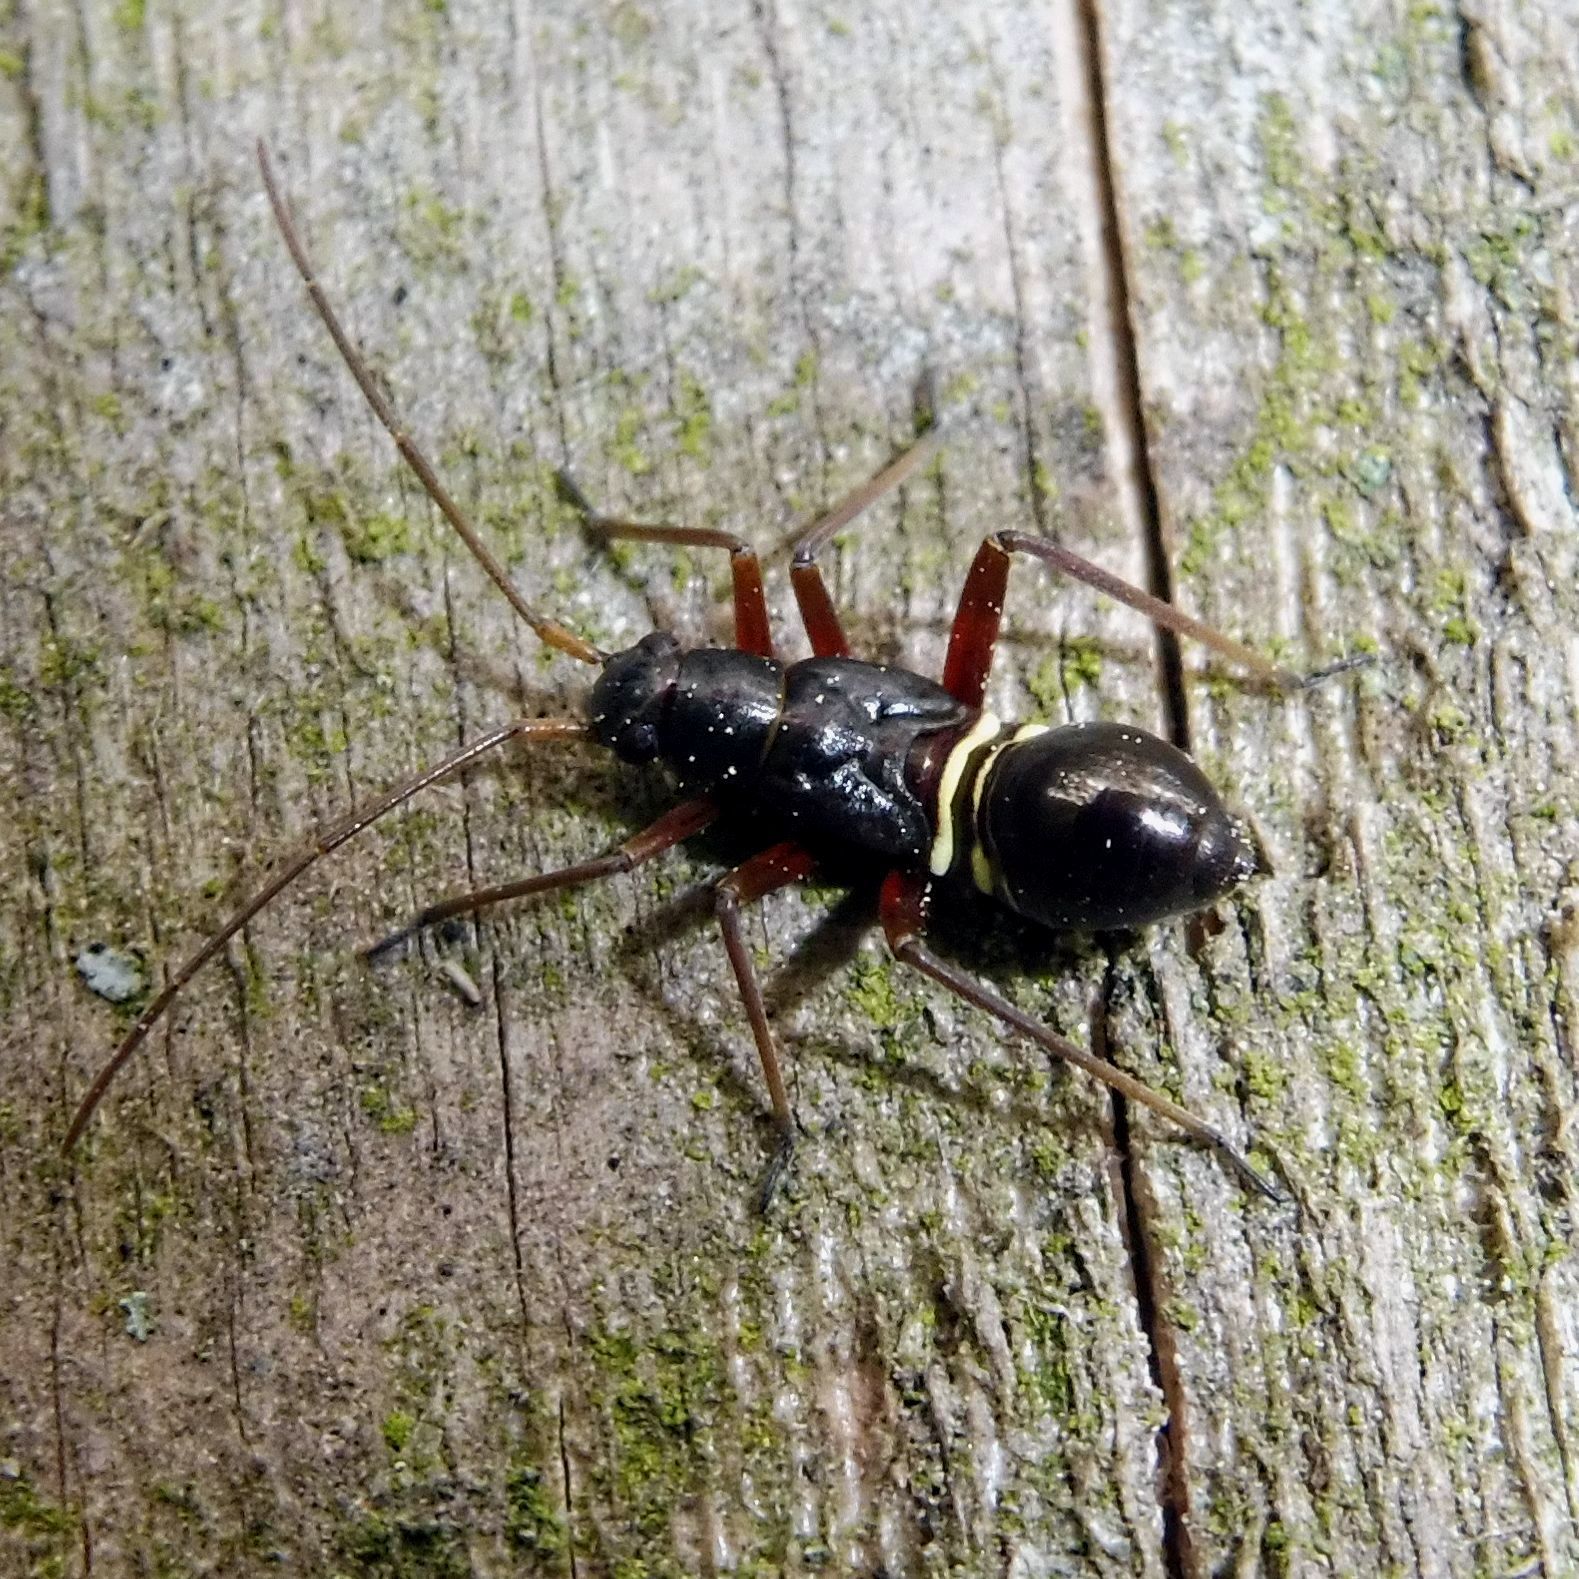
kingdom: Animalia
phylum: Arthropoda
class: Insecta
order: Hemiptera
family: Miridae
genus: Miris
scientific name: Miris striatus
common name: Fine streaked bugkin
